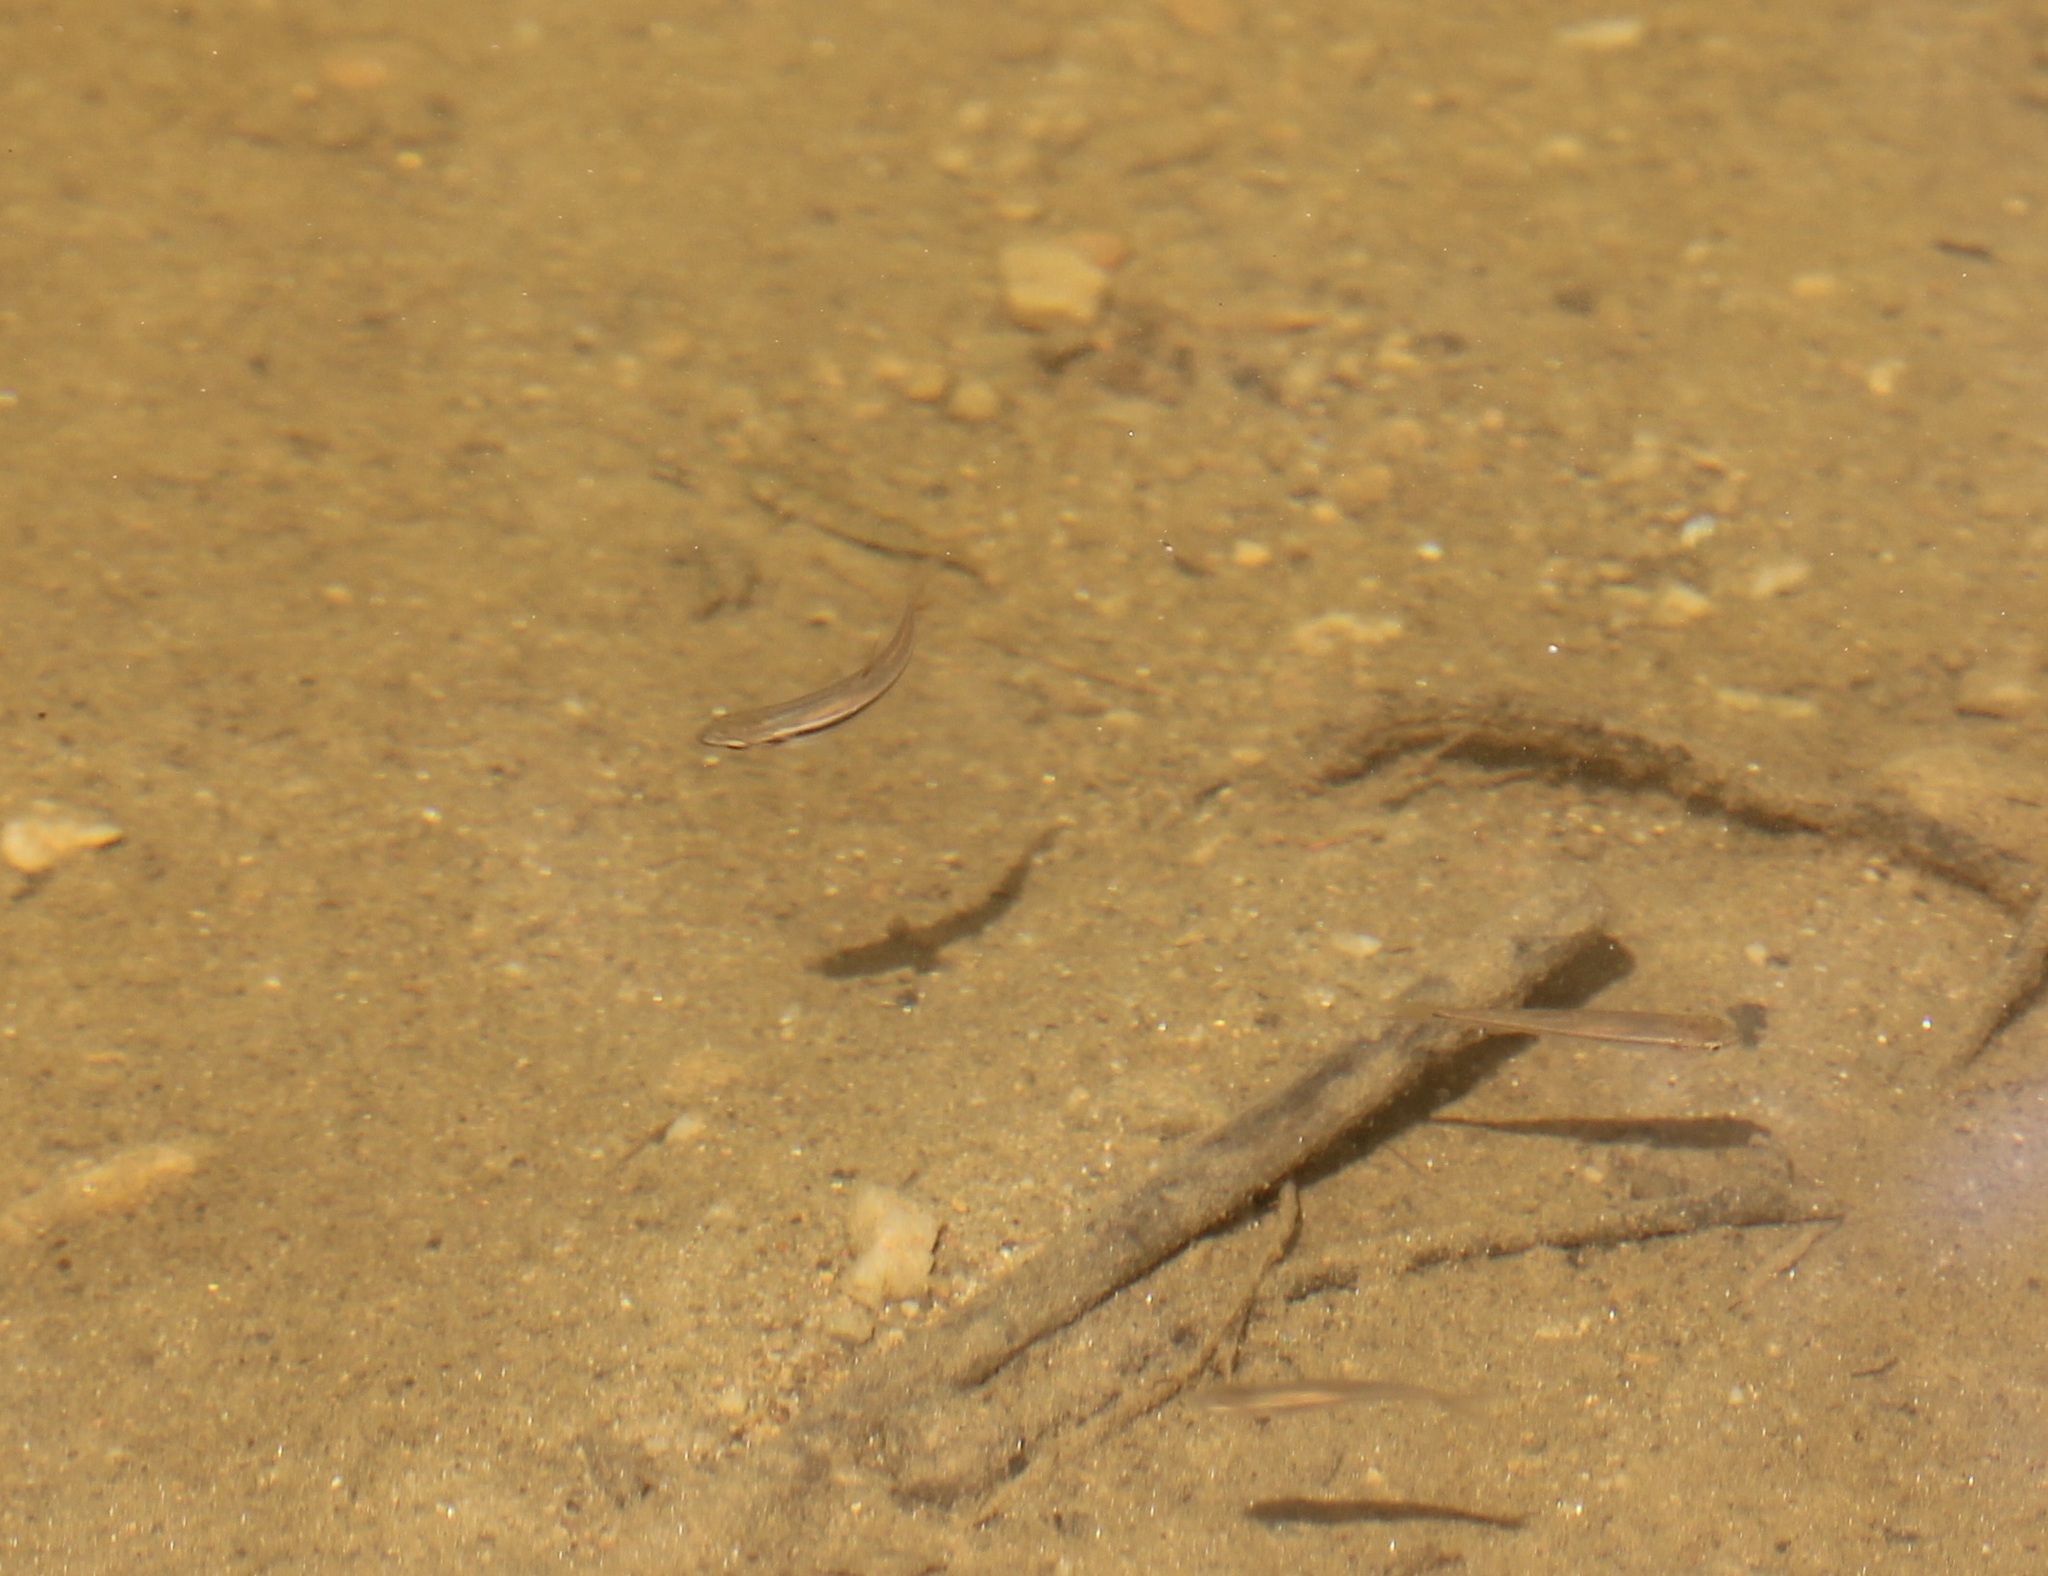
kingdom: Animalia
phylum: Chordata
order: Cypriniformes
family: Cyprinidae
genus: Rhinichthys
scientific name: Rhinichthys atratulus
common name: Eastern blacknose dace
